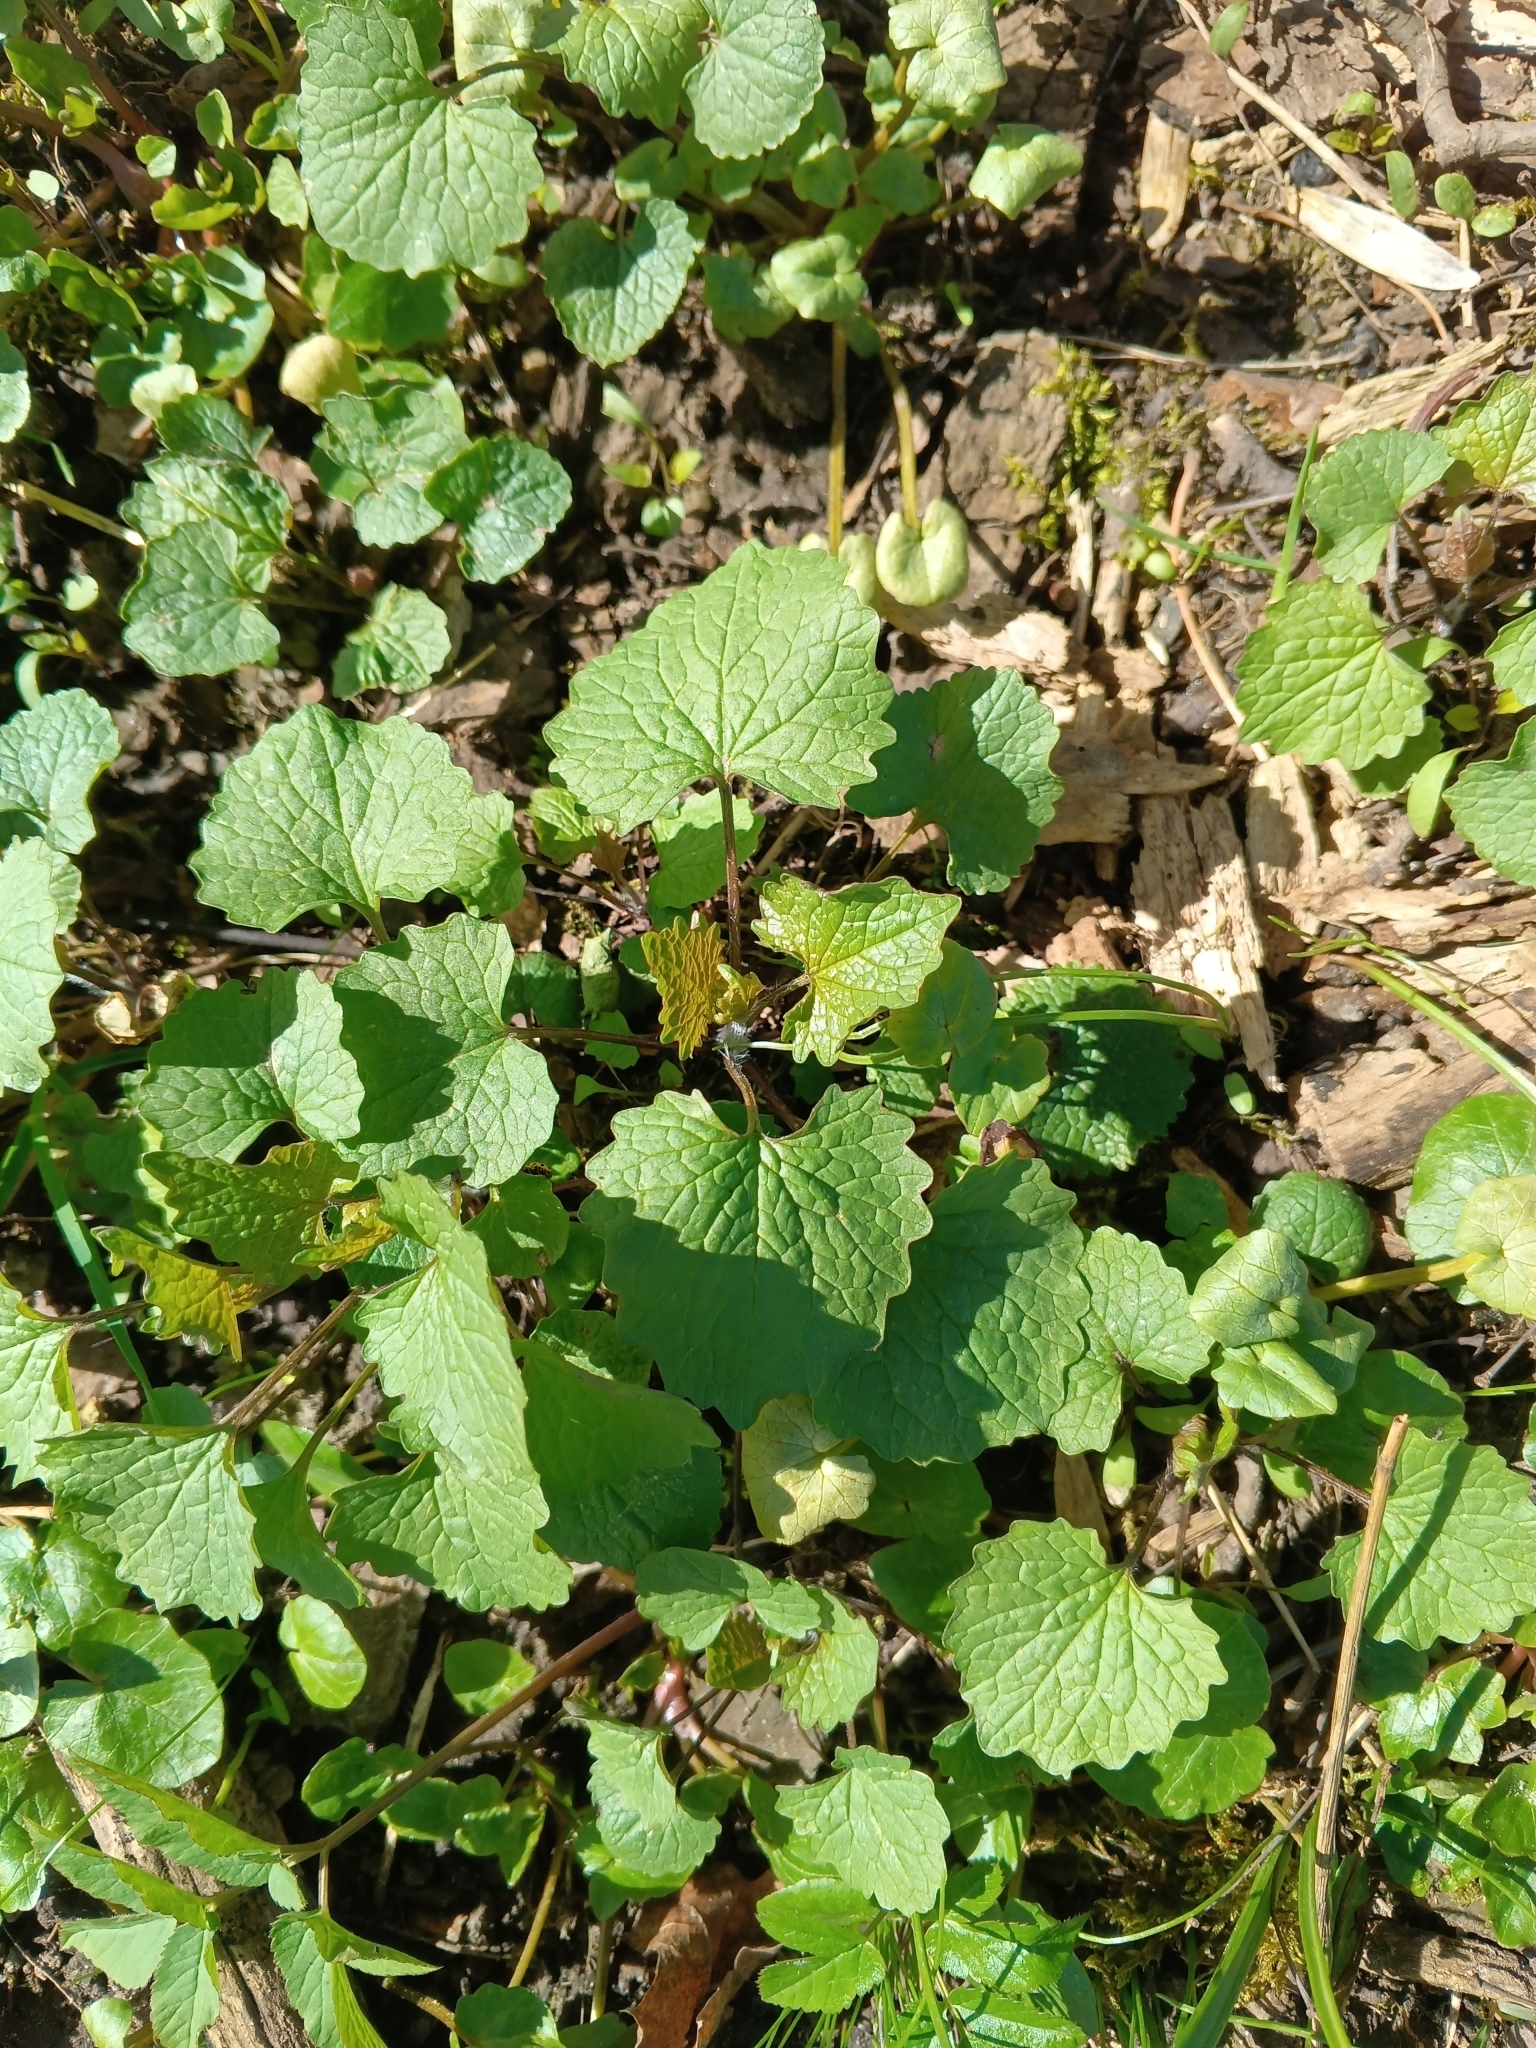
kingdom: Plantae
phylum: Tracheophyta
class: Magnoliopsida
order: Brassicales
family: Brassicaceae
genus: Alliaria
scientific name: Alliaria petiolata
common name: Garlic mustard
